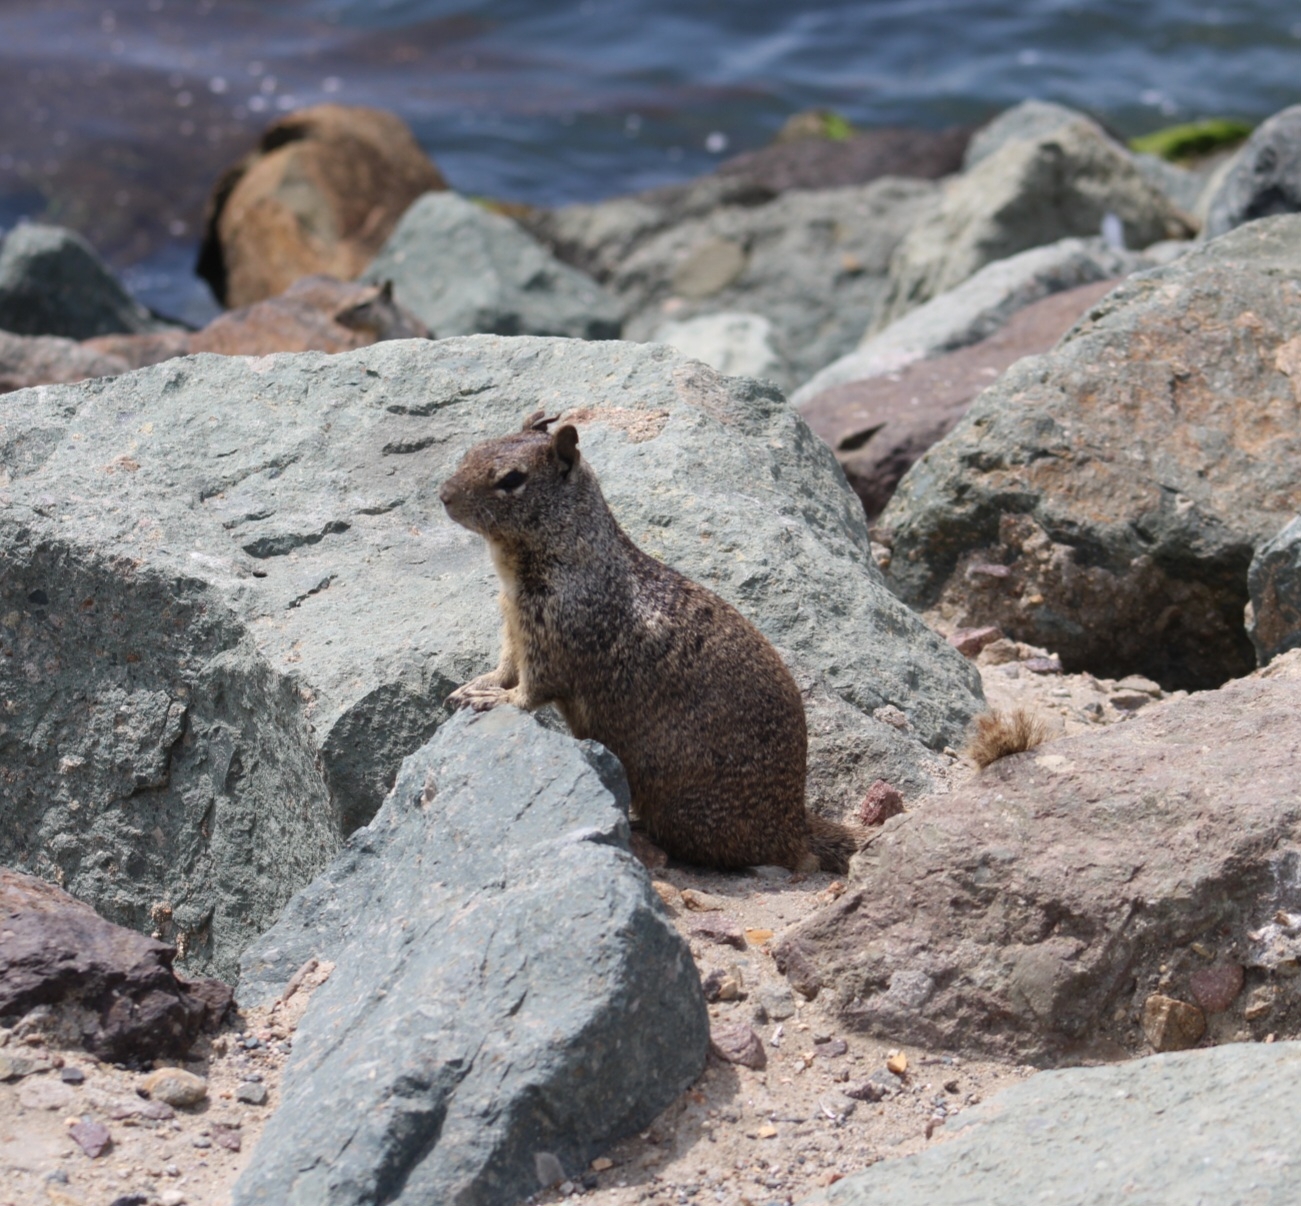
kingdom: Animalia
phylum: Chordata
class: Mammalia
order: Rodentia
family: Sciuridae
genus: Otospermophilus
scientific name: Otospermophilus beecheyi
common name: California ground squirrel
